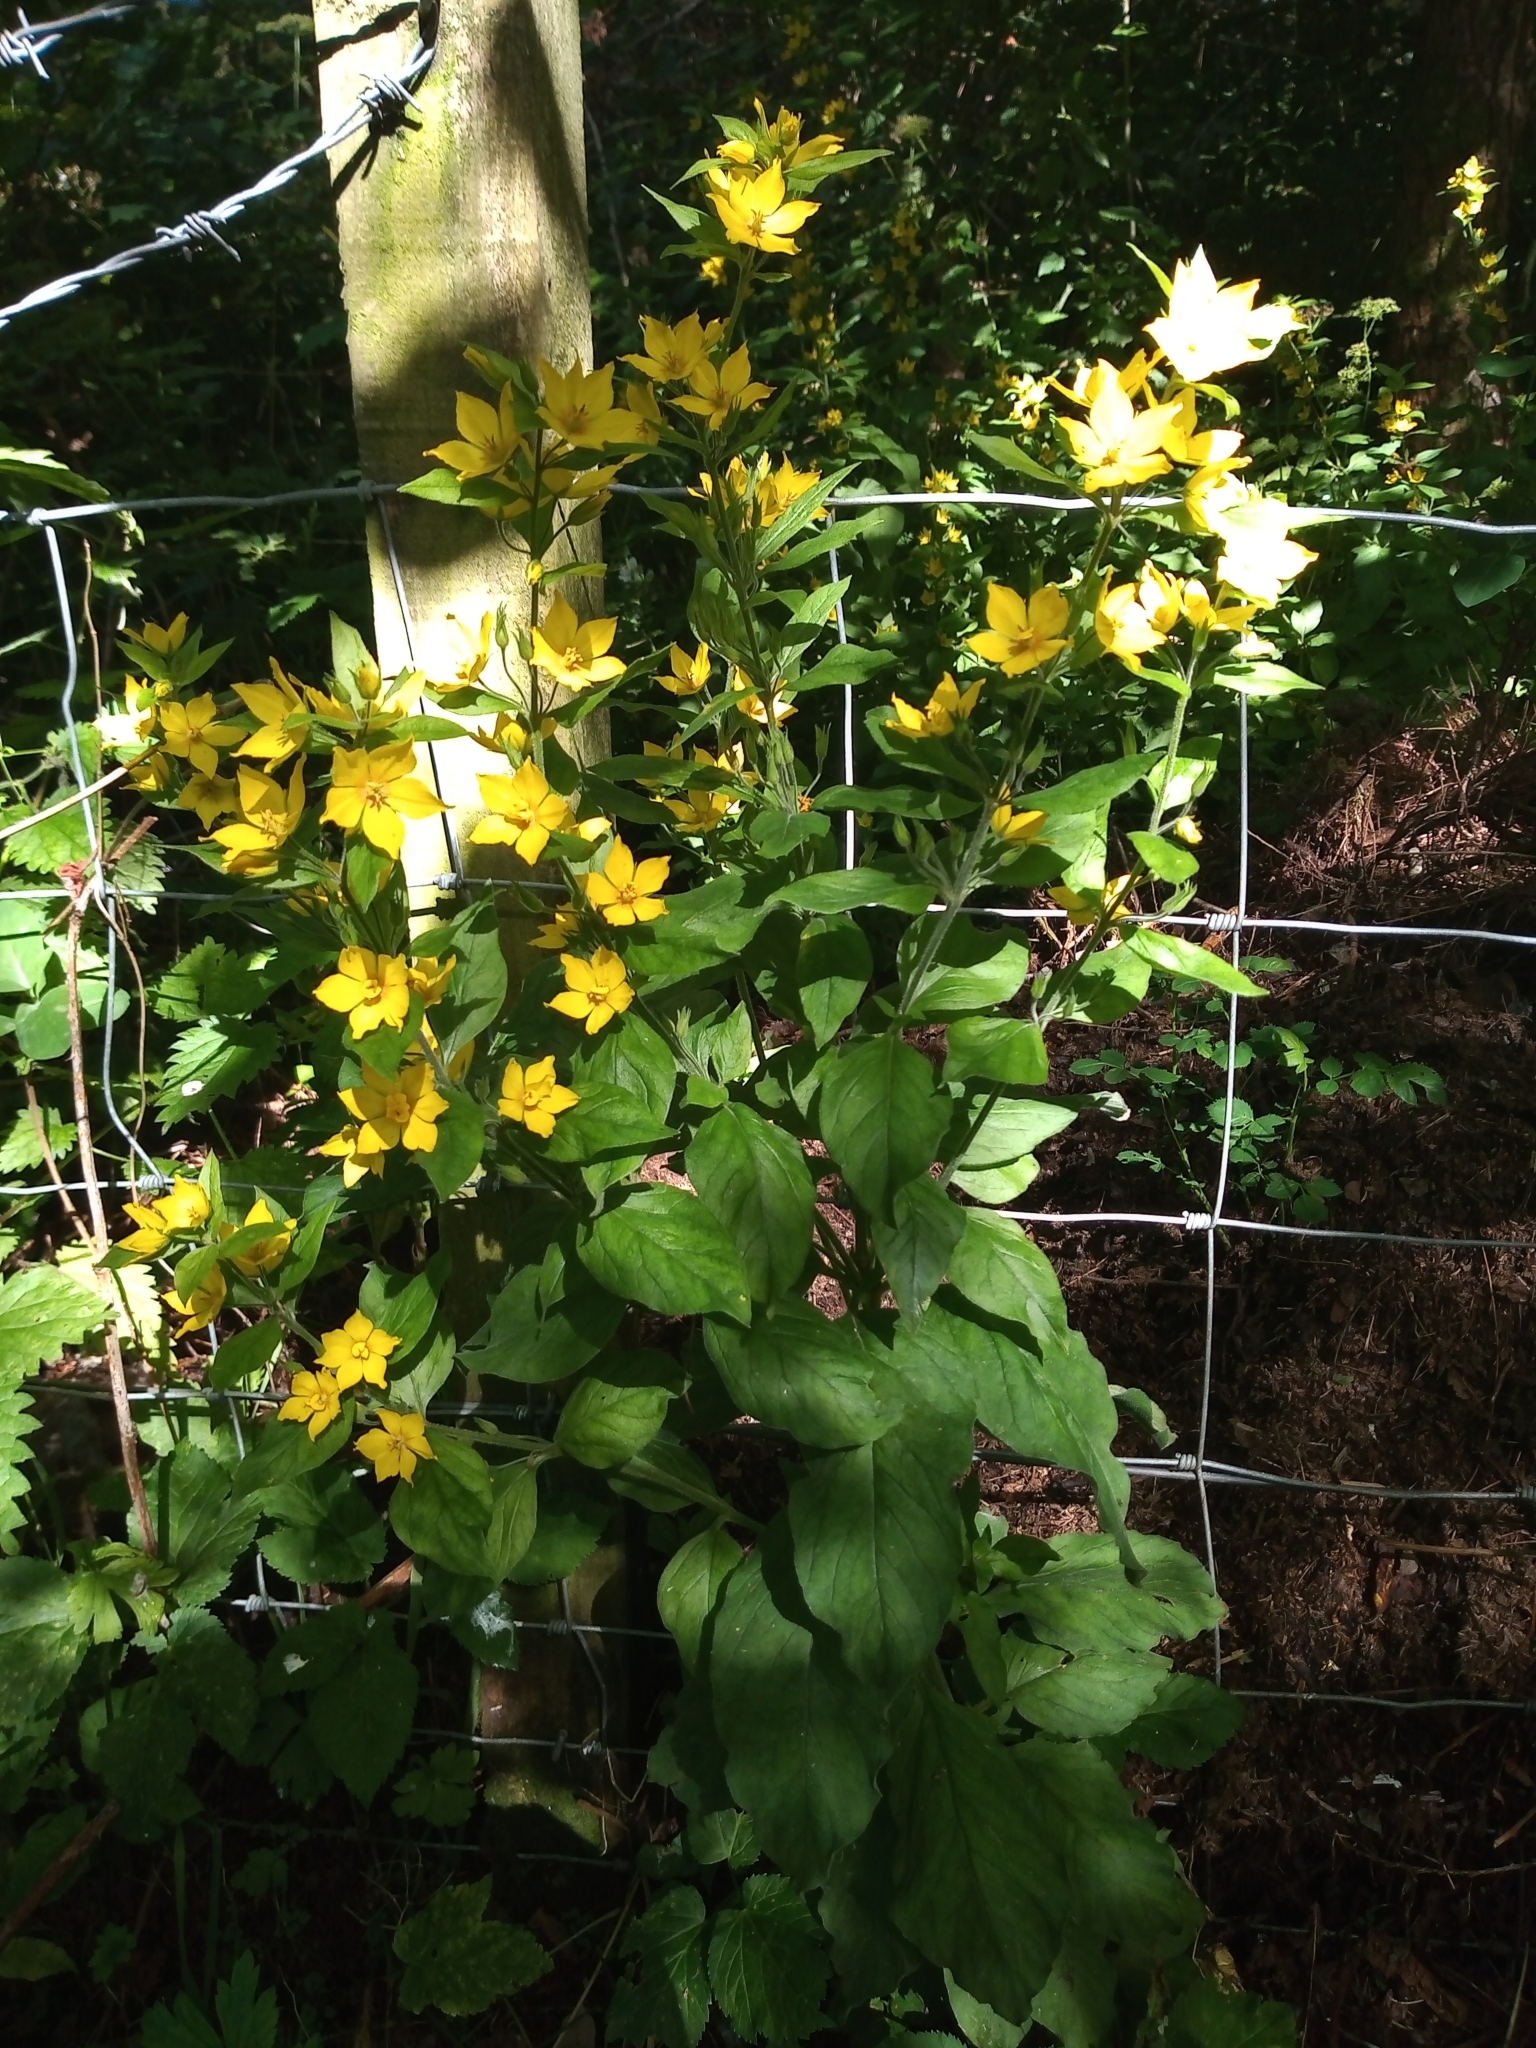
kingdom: Plantae
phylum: Tracheophyta
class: Magnoliopsida
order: Ericales
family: Primulaceae
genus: Lysimachia
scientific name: Lysimachia punctata
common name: Dotted loosestrife
